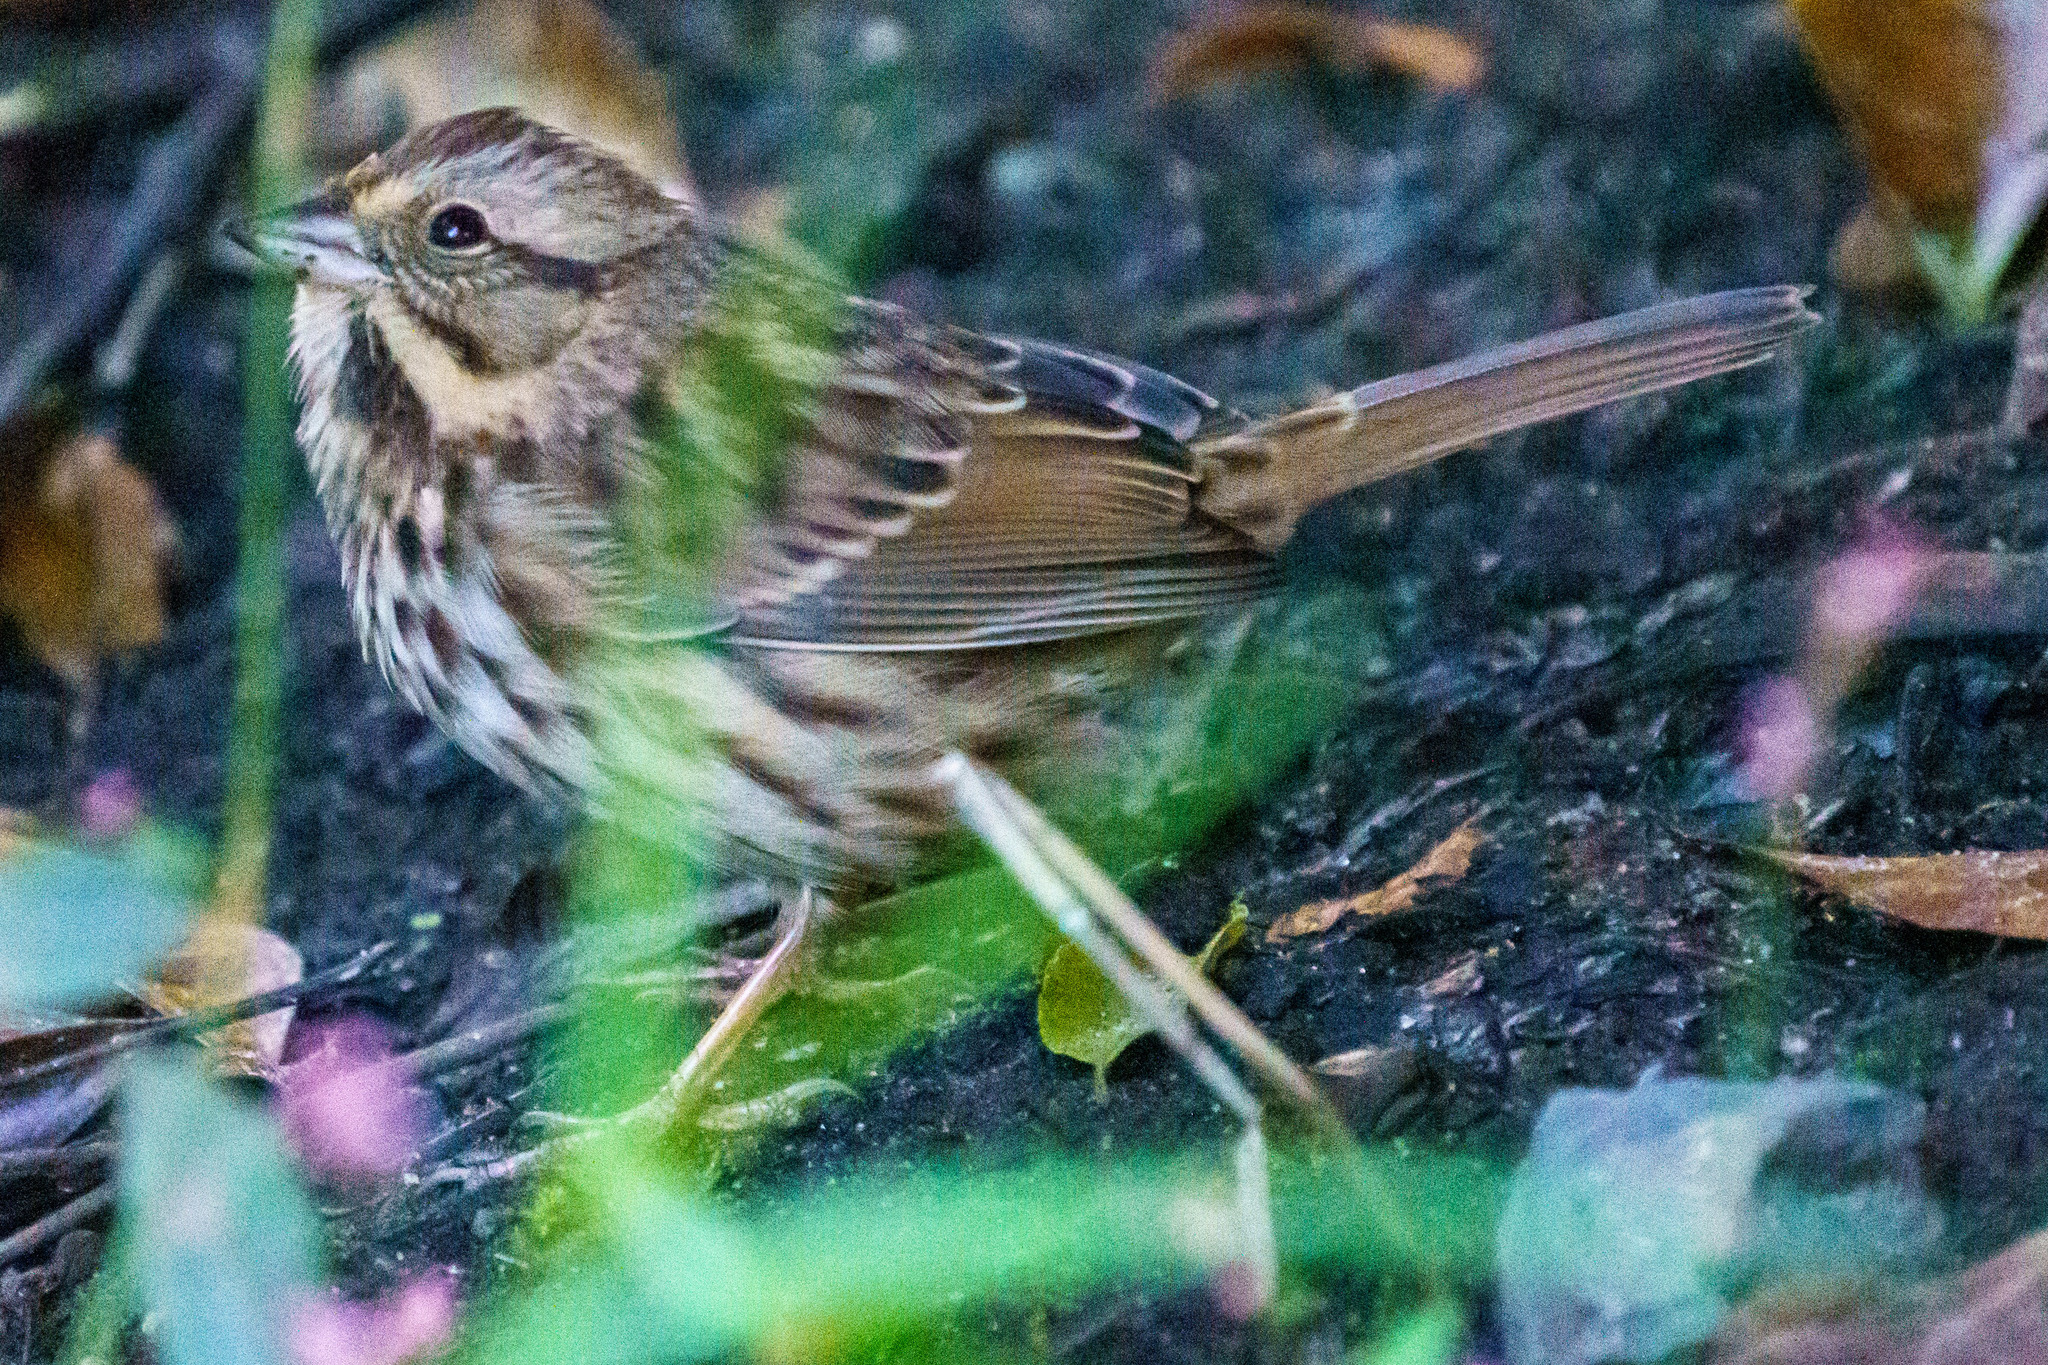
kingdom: Animalia
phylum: Chordata
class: Aves
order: Passeriformes
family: Passerellidae
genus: Melospiza
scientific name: Melospiza melodia
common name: Song sparrow
